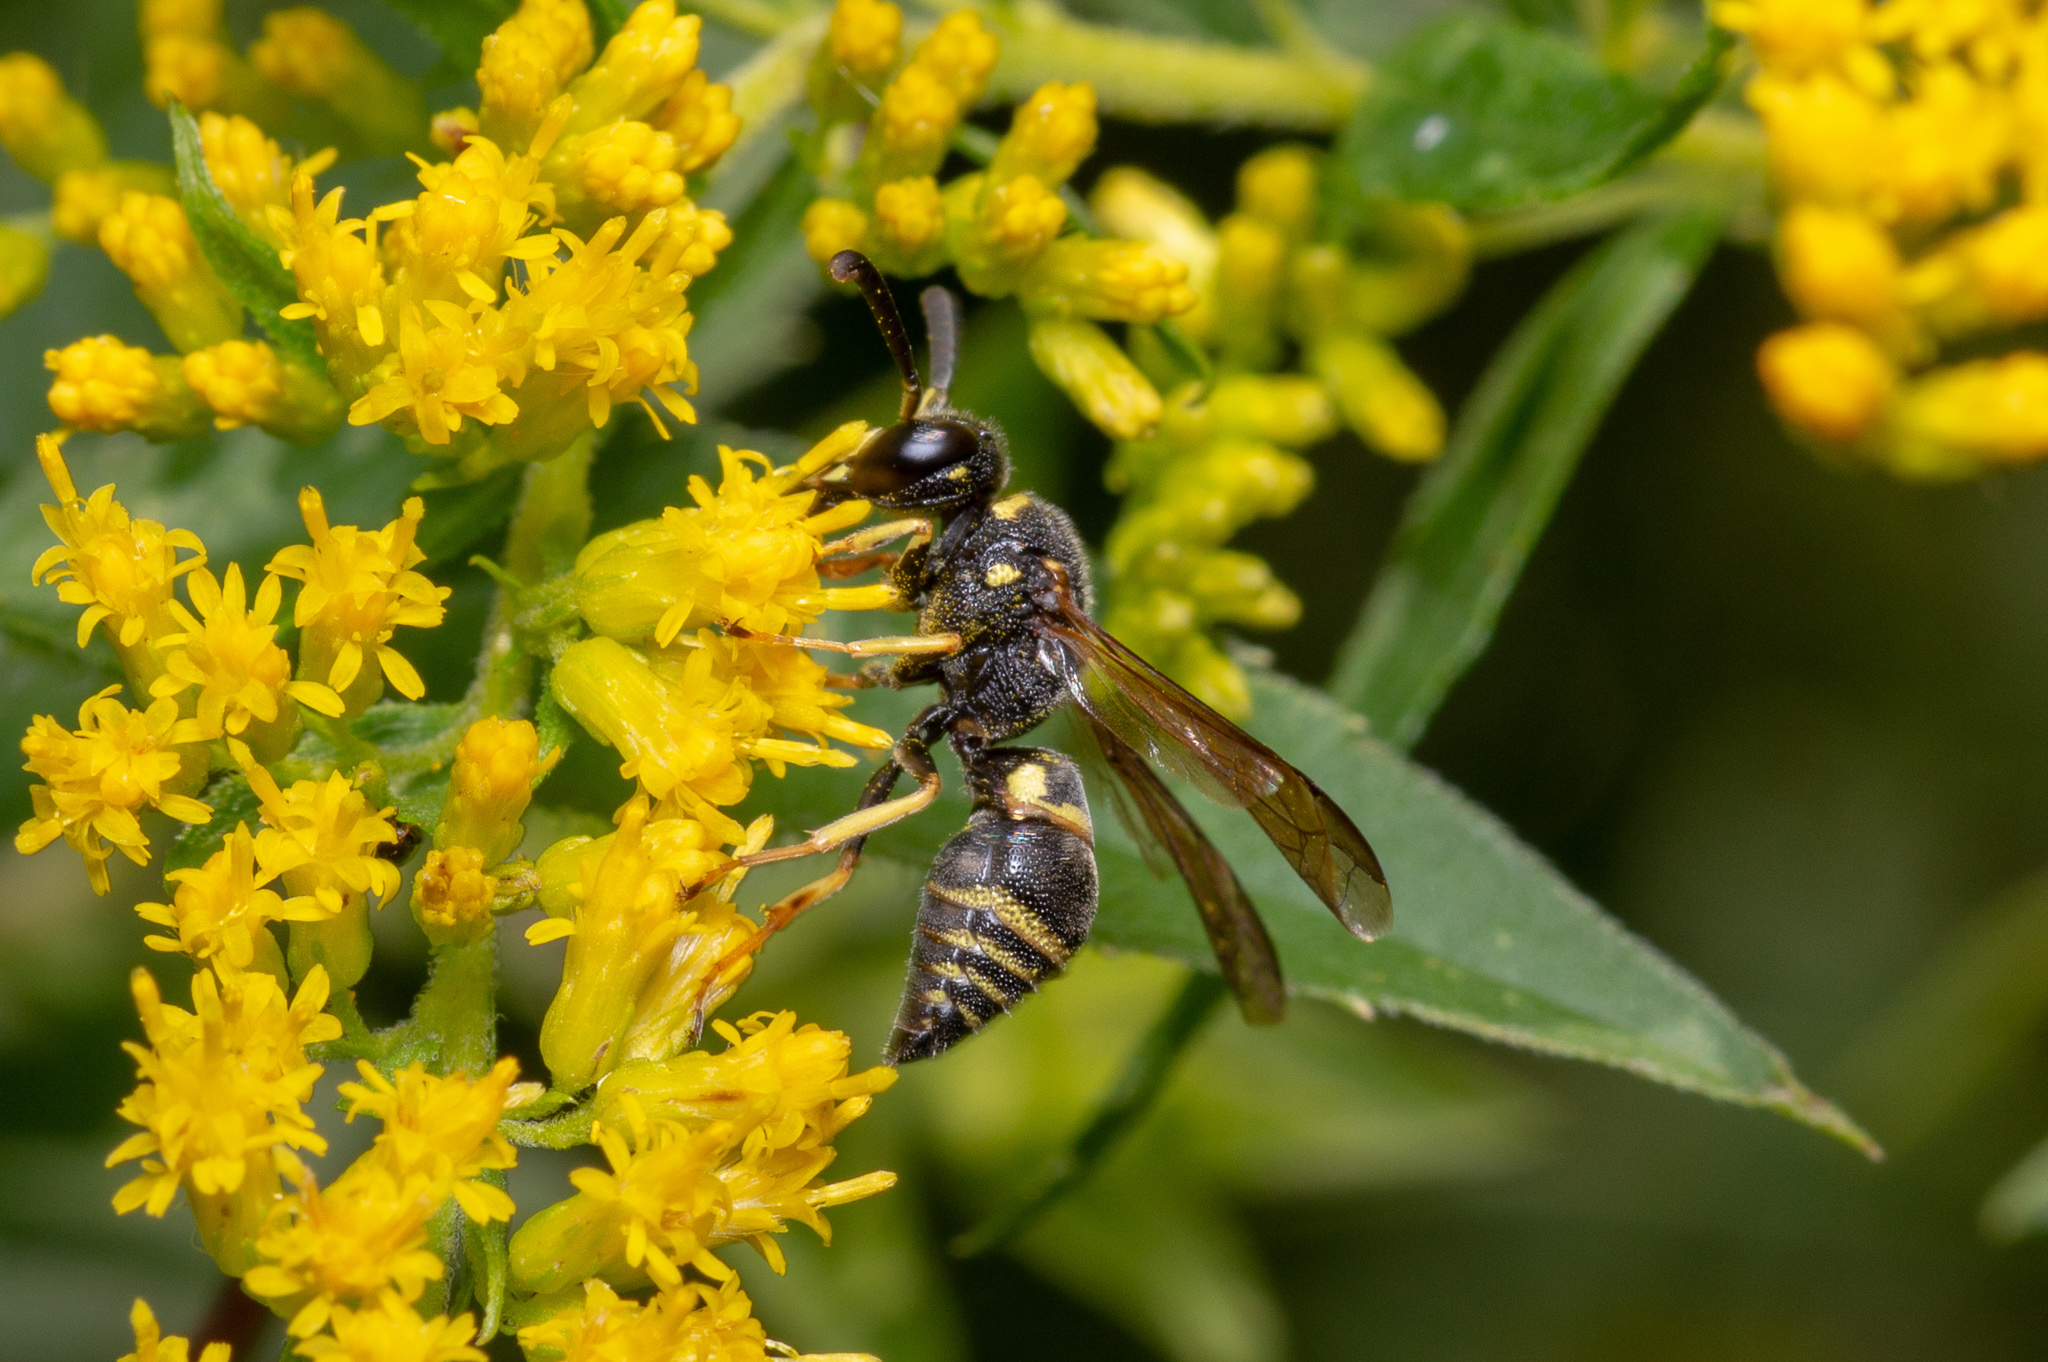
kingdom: Animalia
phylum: Arthropoda
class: Insecta
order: Hymenoptera
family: Eumenidae
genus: Euodynerus
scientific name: Euodynerus foraminatus
